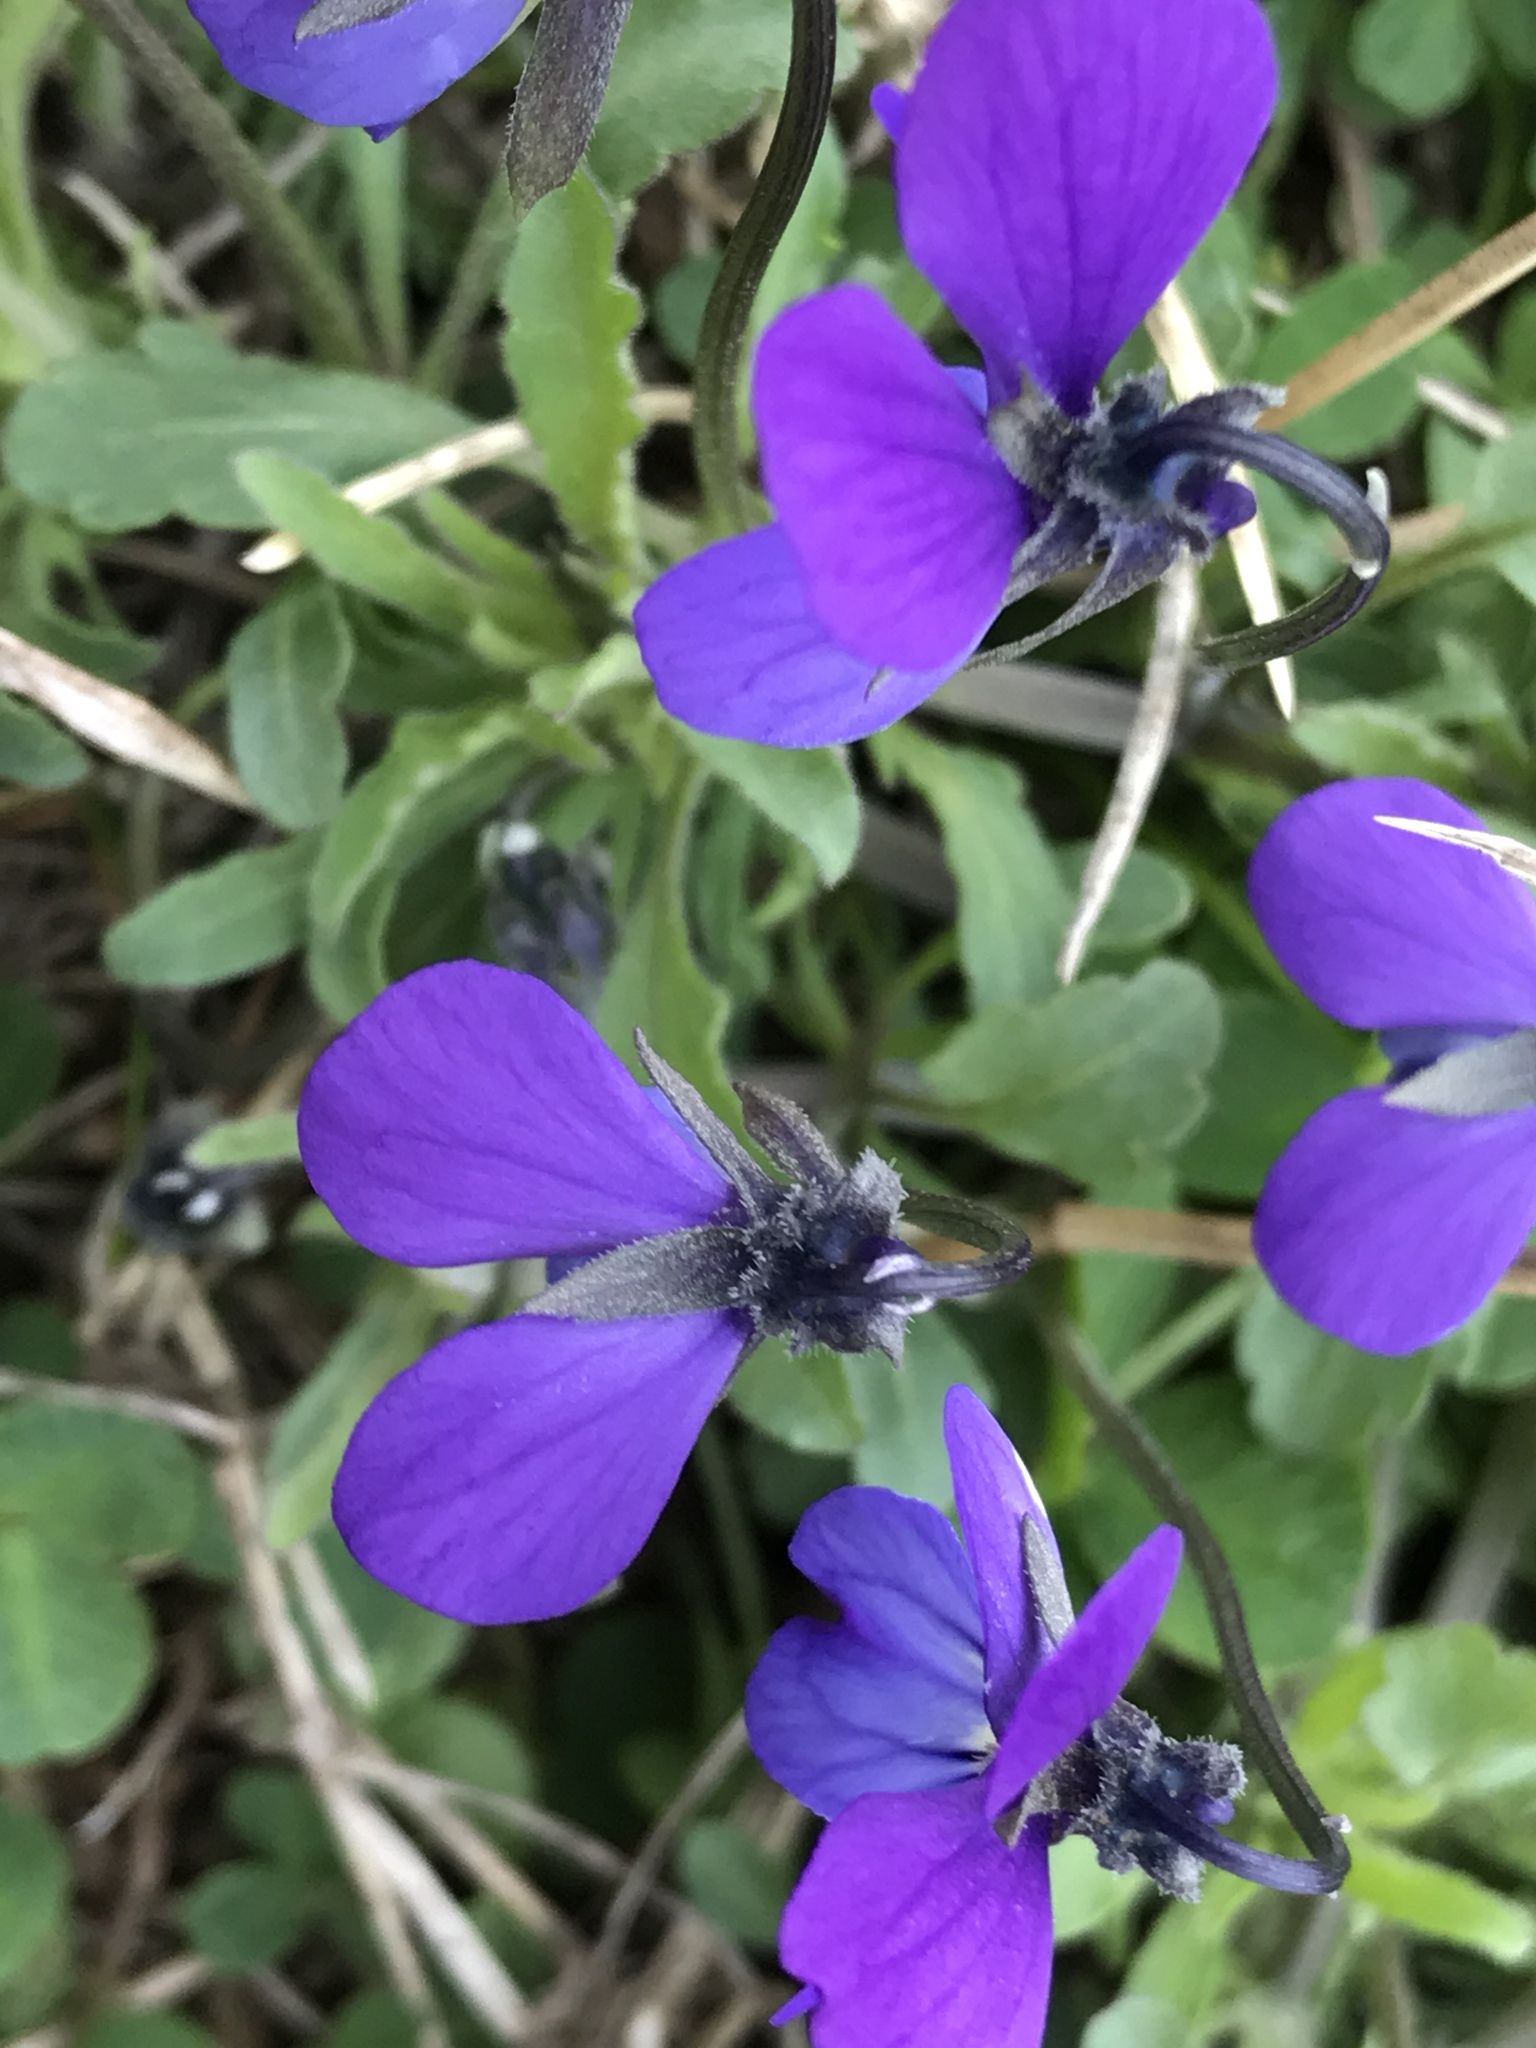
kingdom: Plantae
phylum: Tracheophyta
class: Magnoliopsida
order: Malpighiales
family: Violaceae
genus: Viola
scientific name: Viola tricolor
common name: Pansy
